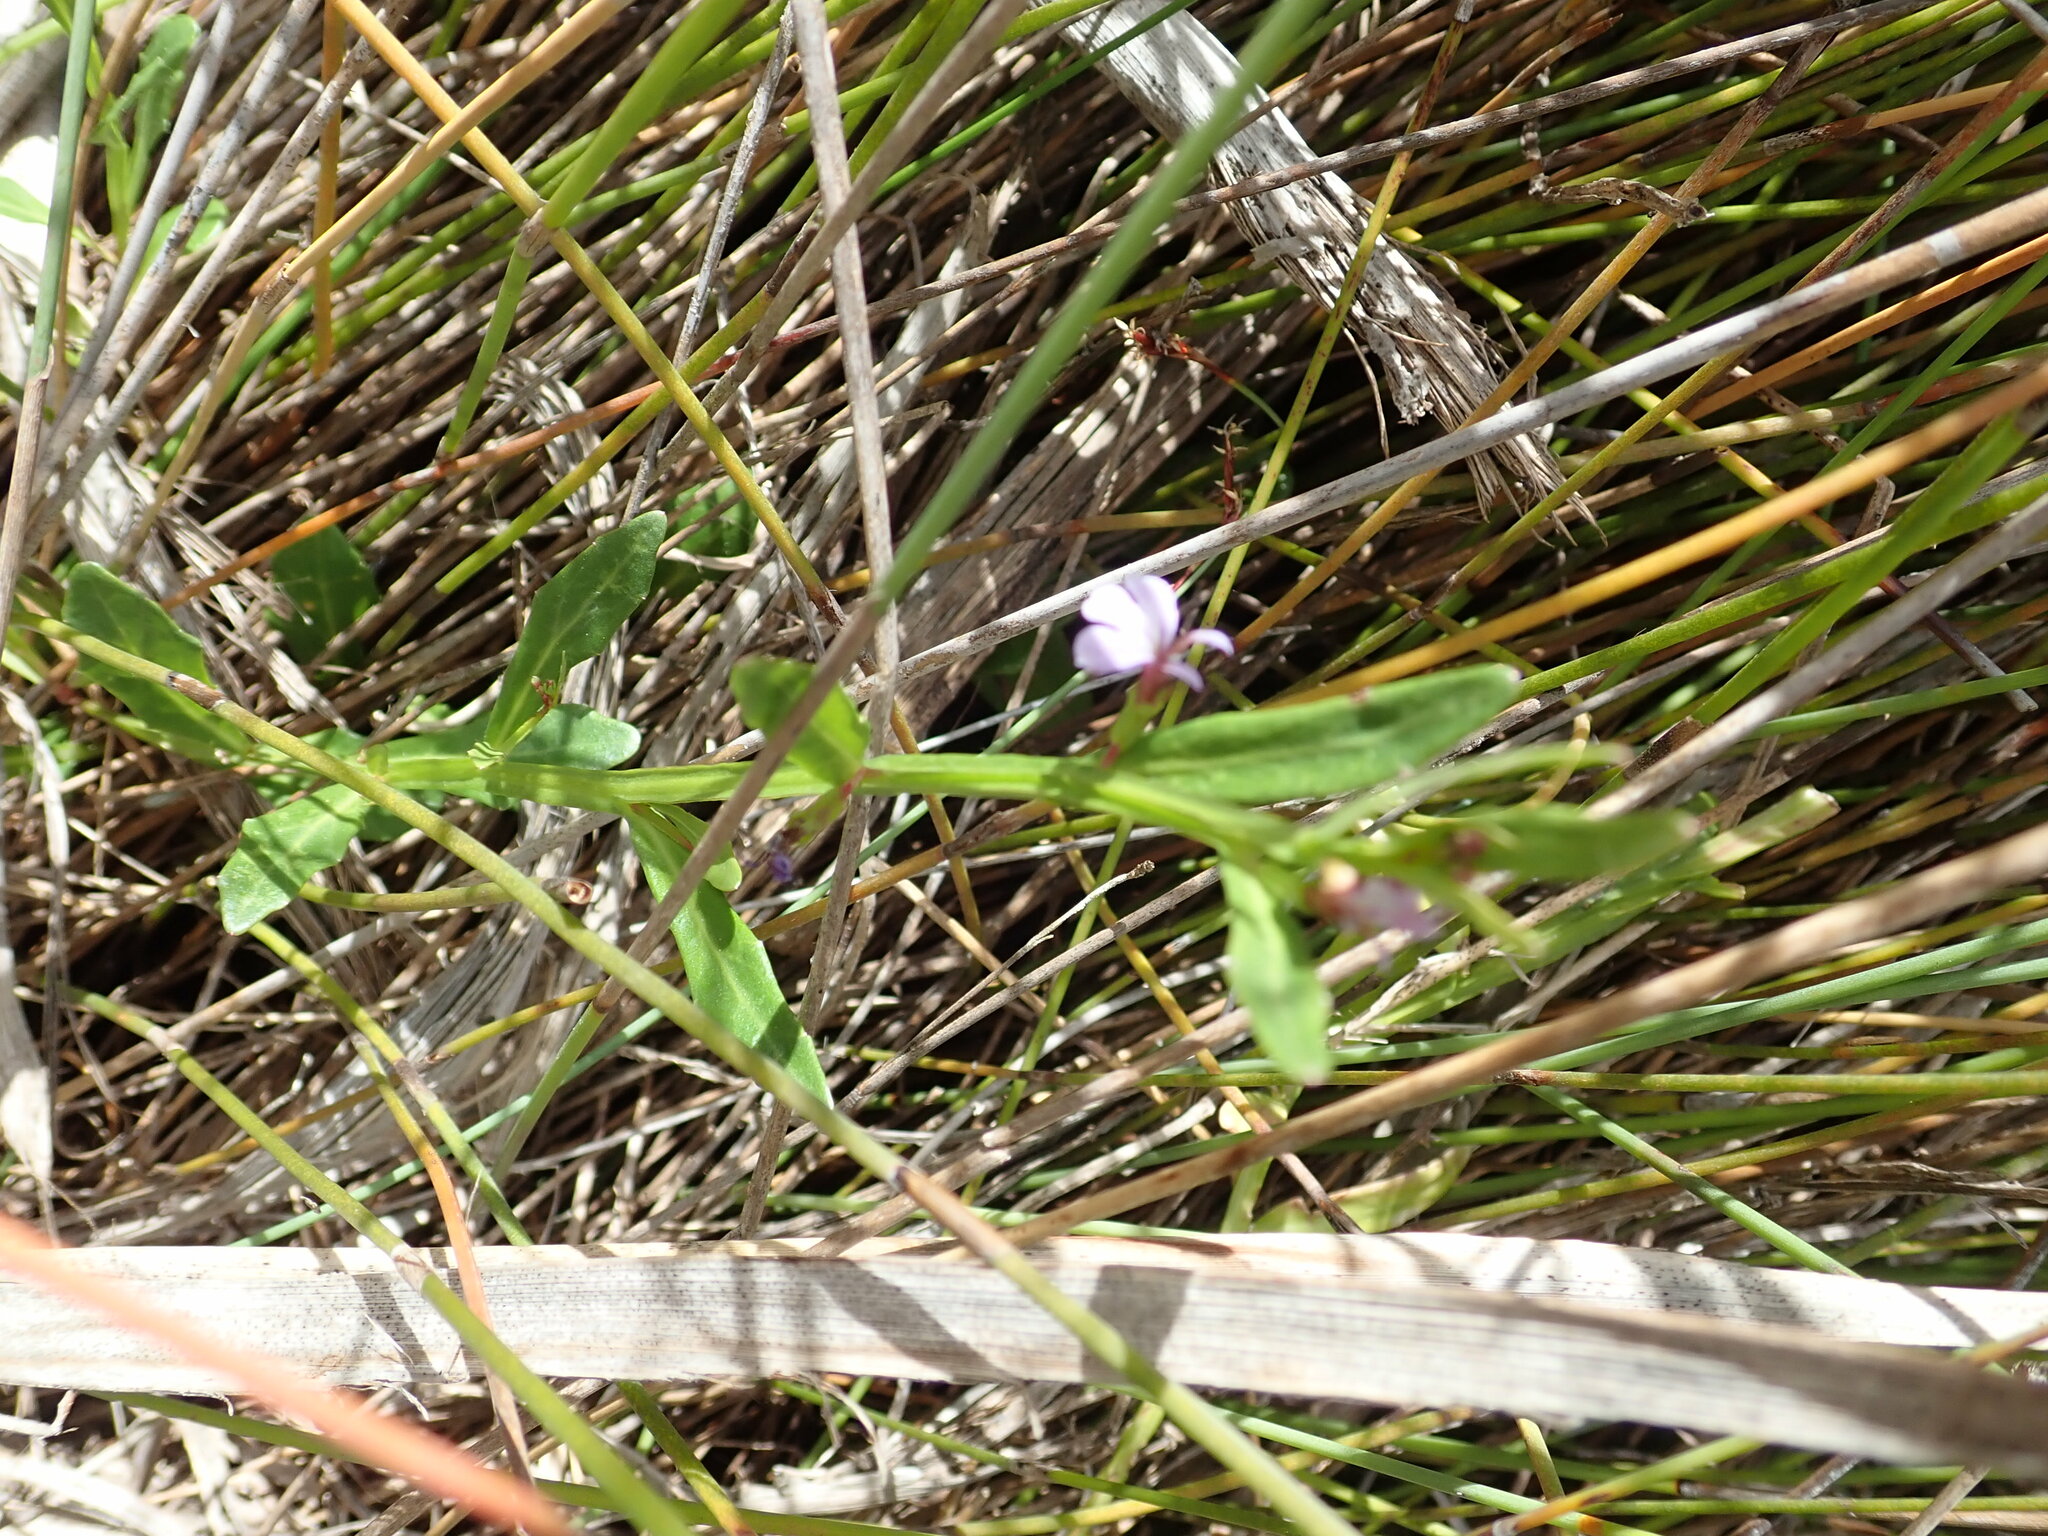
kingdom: Plantae
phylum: Tracheophyta
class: Magnoliopsida
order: Asterales
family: Campanulaceae
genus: Lobelia
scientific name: Lobelia anceps
